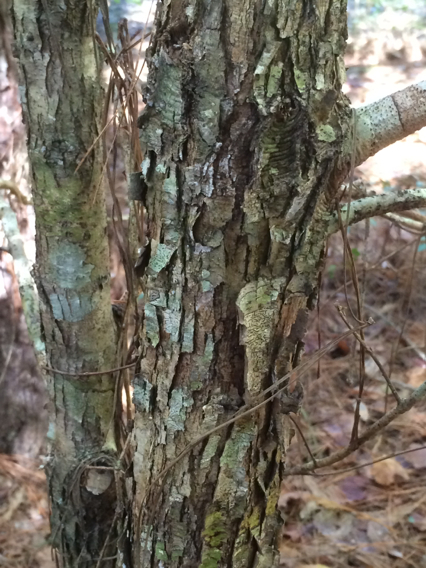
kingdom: Plantae
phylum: Tracheophyta
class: Magnoliopsida
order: Fagales
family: Fagaceae
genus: Quercus
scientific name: Quercus alba
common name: White oak
